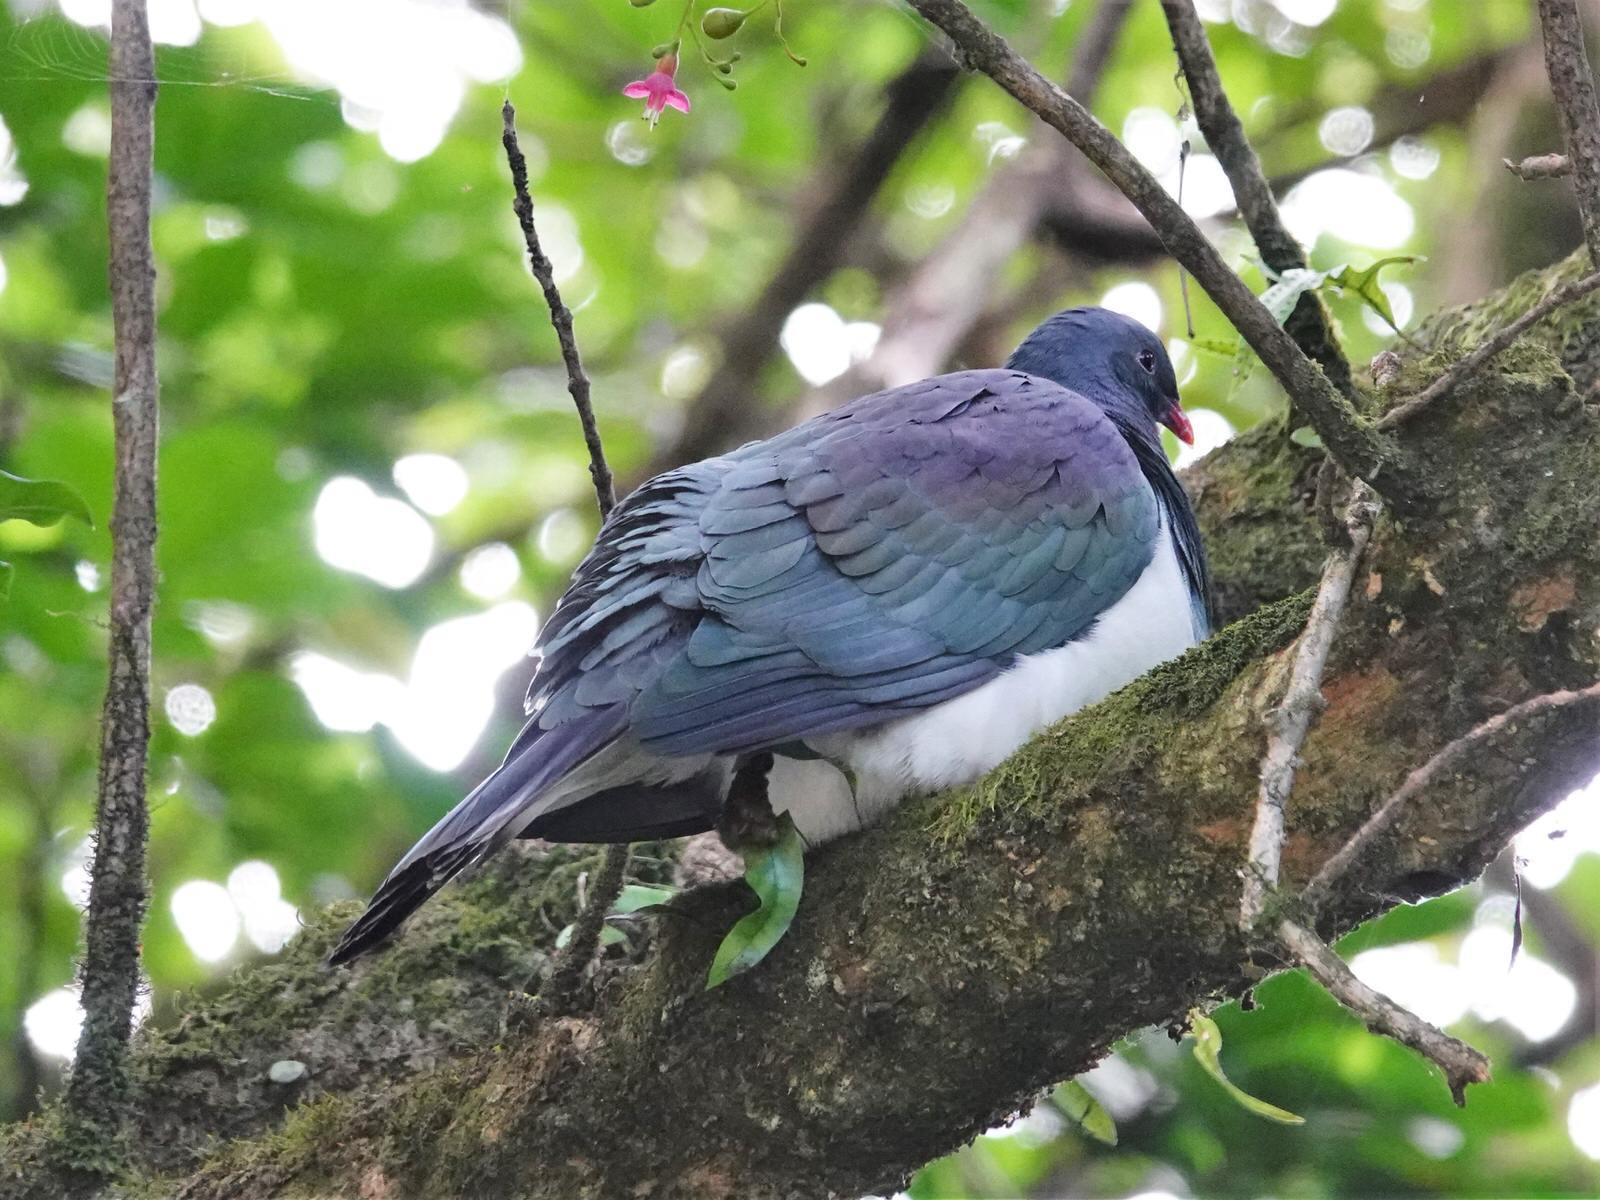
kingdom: Animalia
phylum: Chordata
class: Aves
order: Columbiformes
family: Columbidae
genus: Hemiphaga
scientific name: Hemiphaga novaeseelandiae
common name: New zealand pigeon
